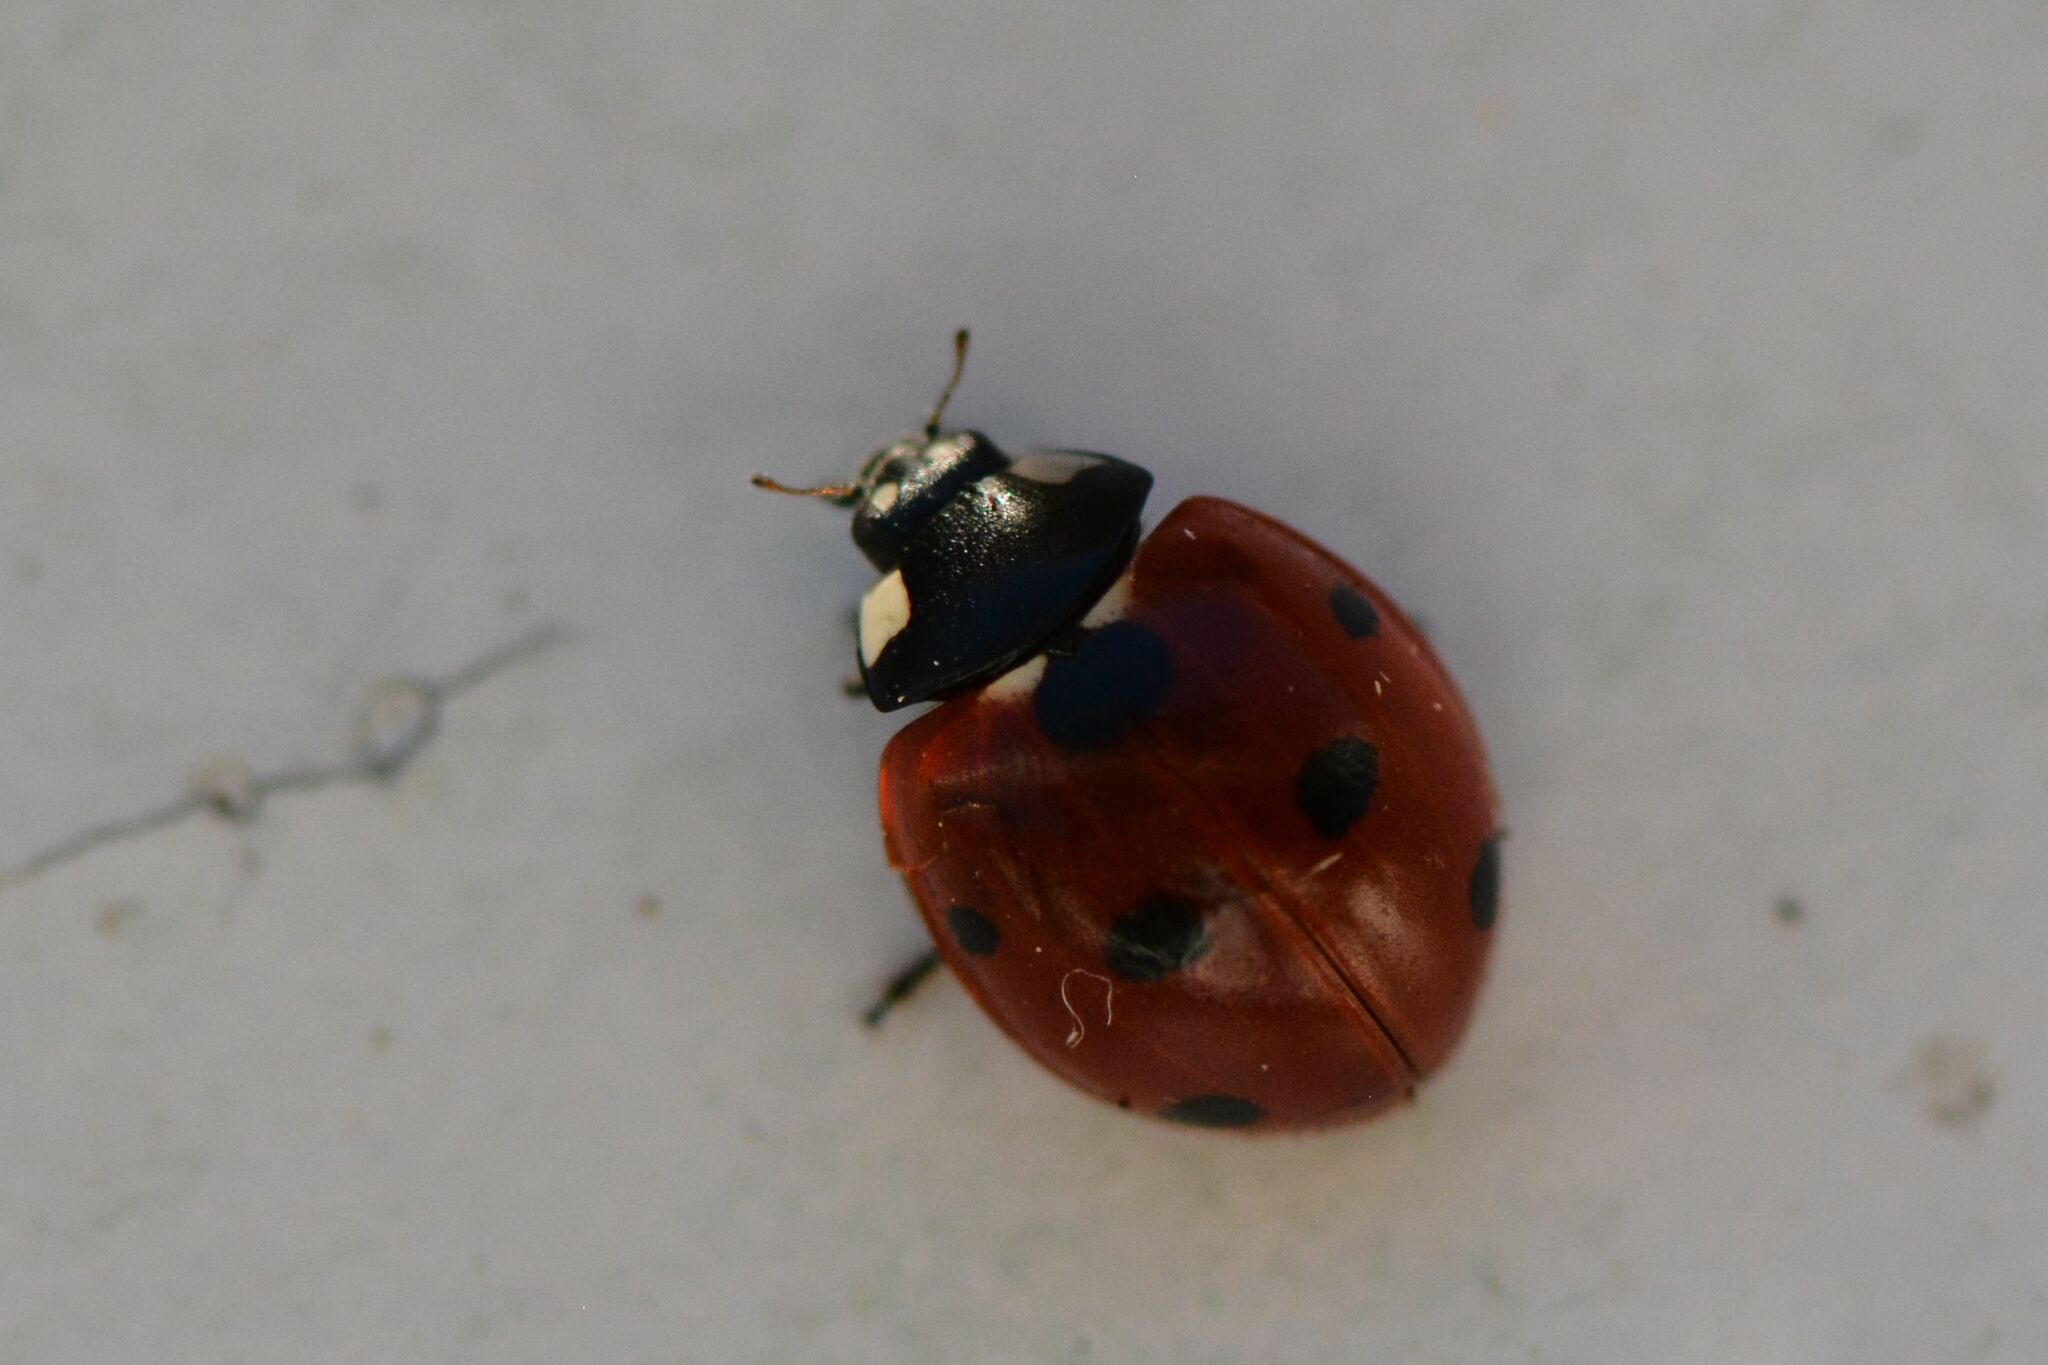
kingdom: Animalia
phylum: Arthropoda
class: Insecta
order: Coleoptera
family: Coccinellidae
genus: Coccinella
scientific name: Coccinella septempunctata
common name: Sevenspotted lady beetle
